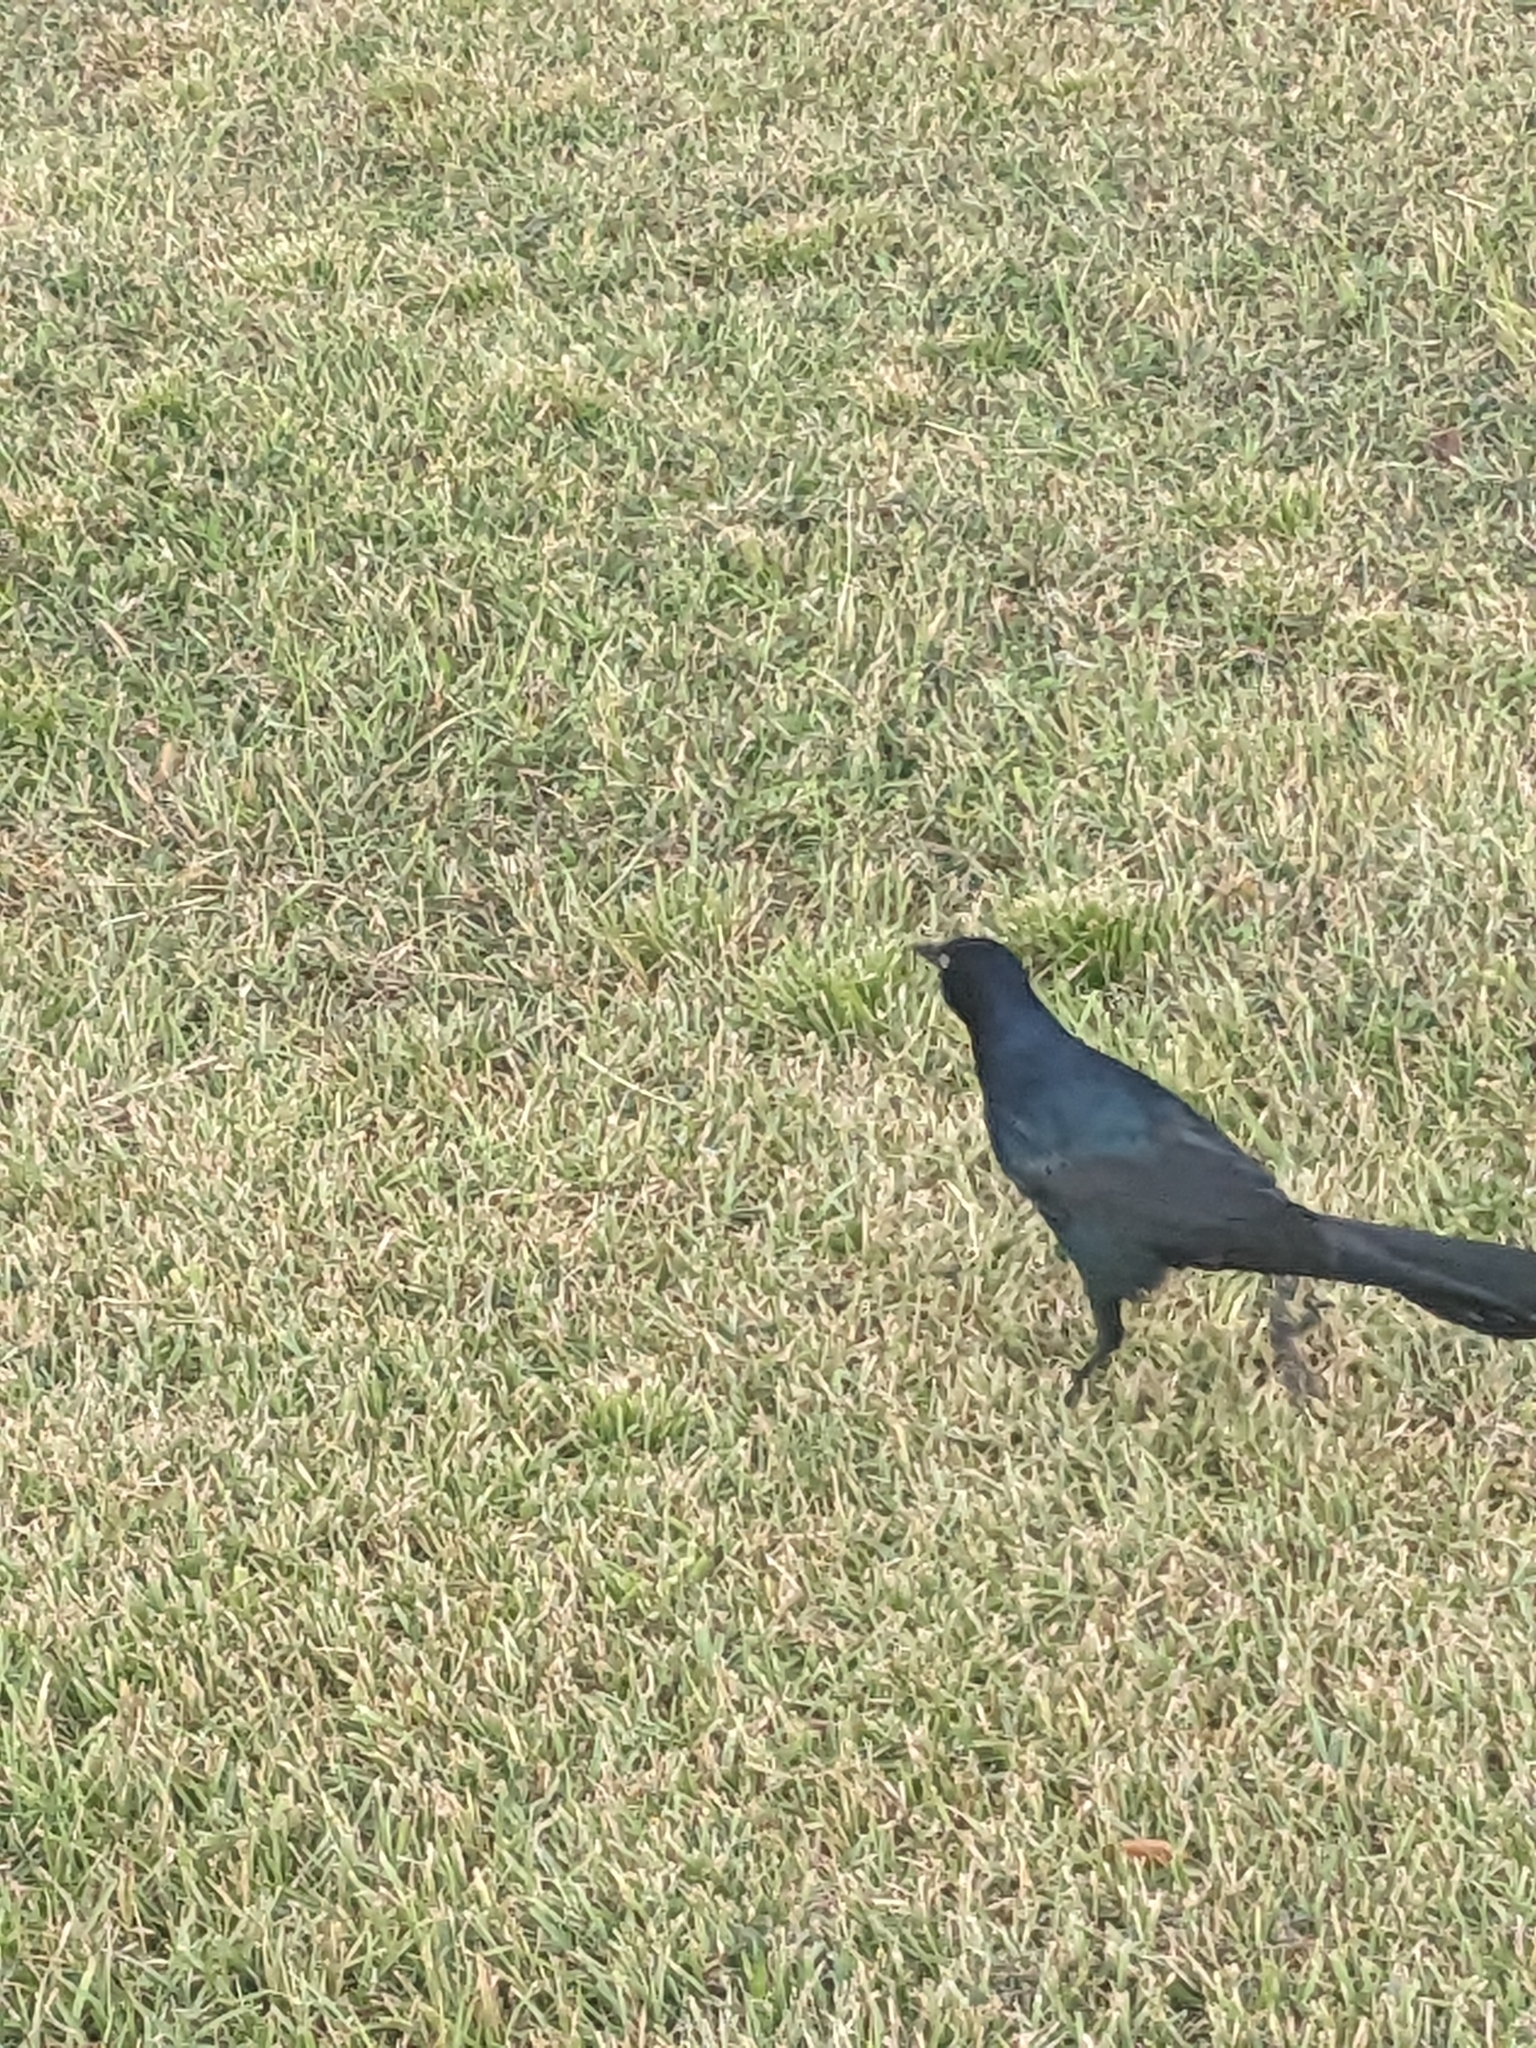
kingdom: Animalia
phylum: Chordata
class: Aves
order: Passeriformes
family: Icteridae
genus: Quiscalus
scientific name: Quiscalus major
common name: Boat-tailed grackle
